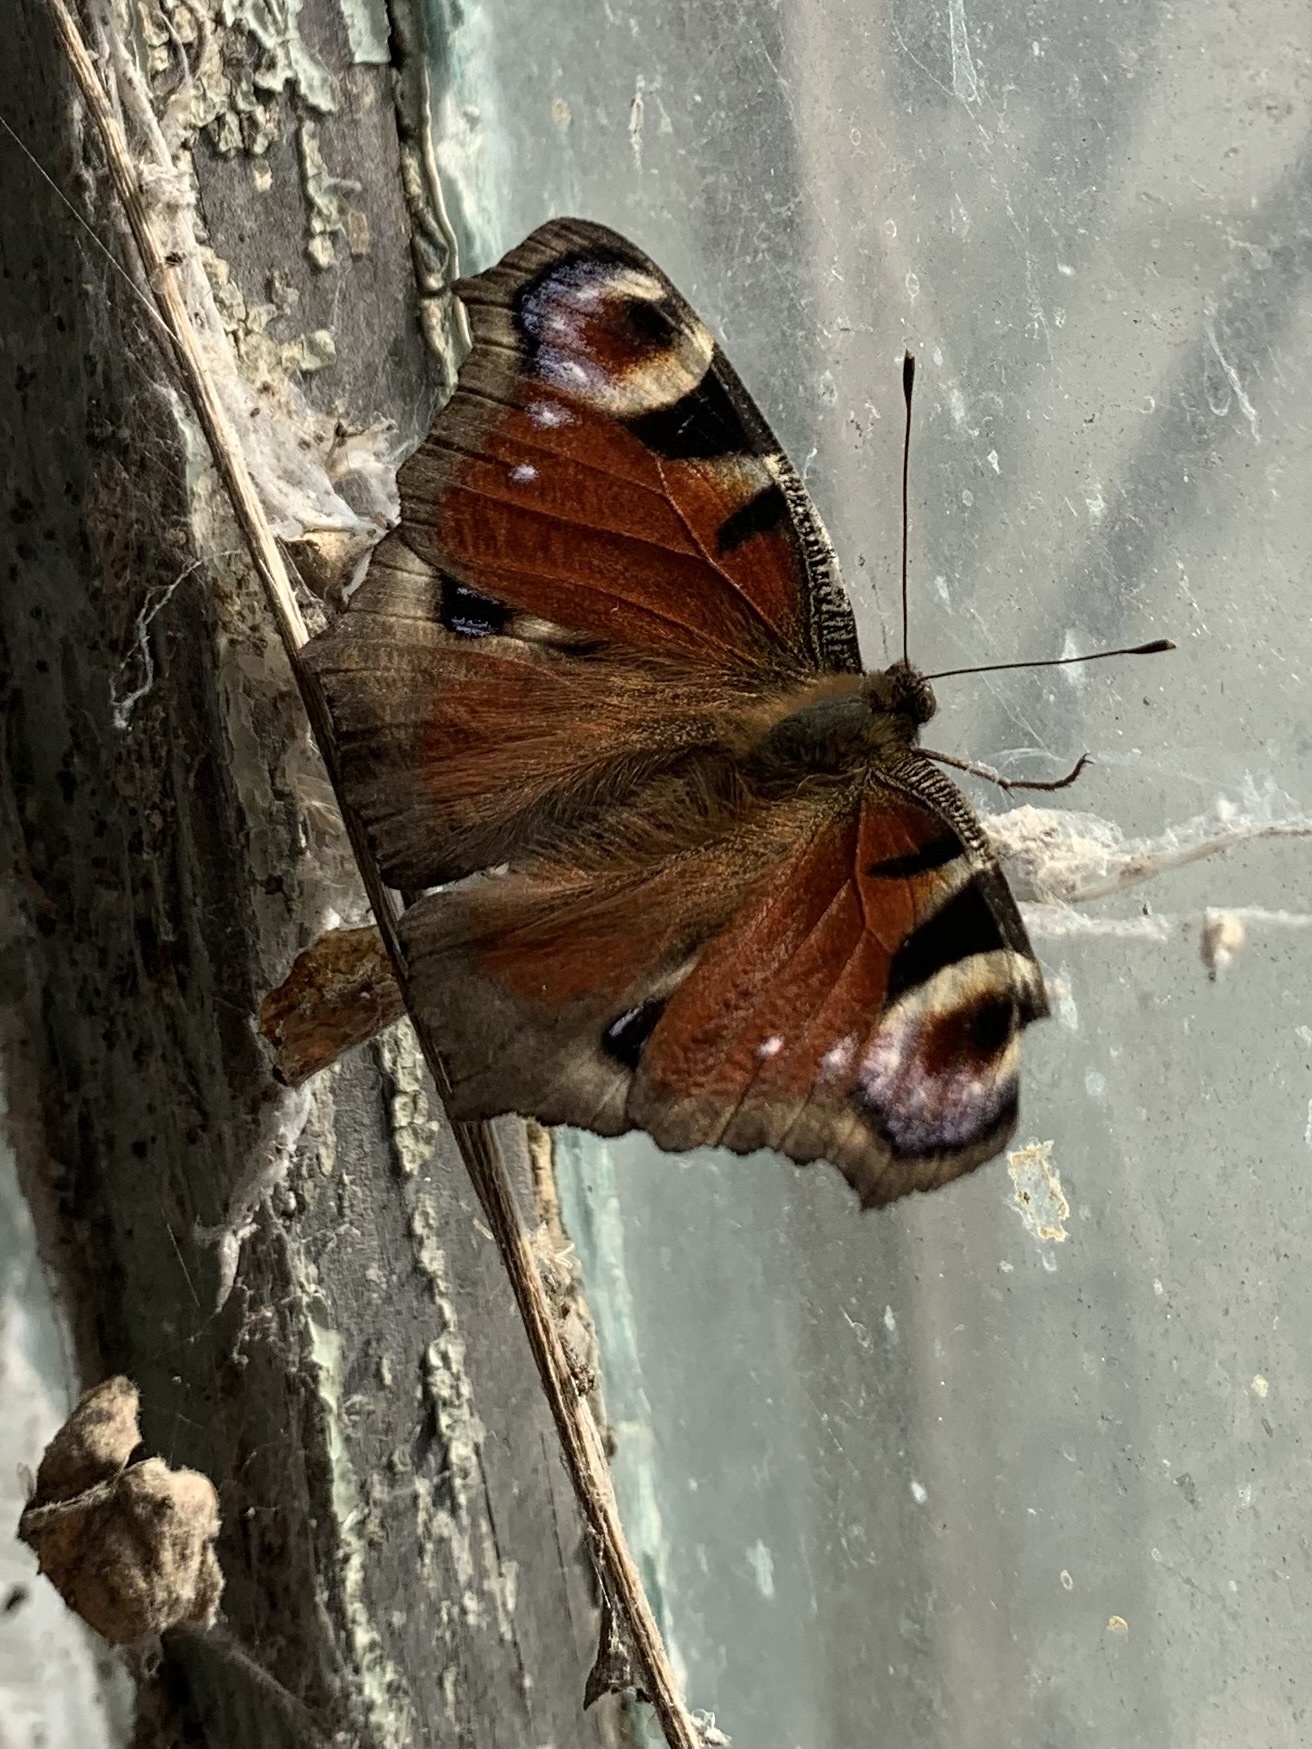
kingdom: Animalia
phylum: Arthropoda
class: Insecta
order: Lepidoptera
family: Nymphalidae
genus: Aglais
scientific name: Aglais io
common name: Peacock
